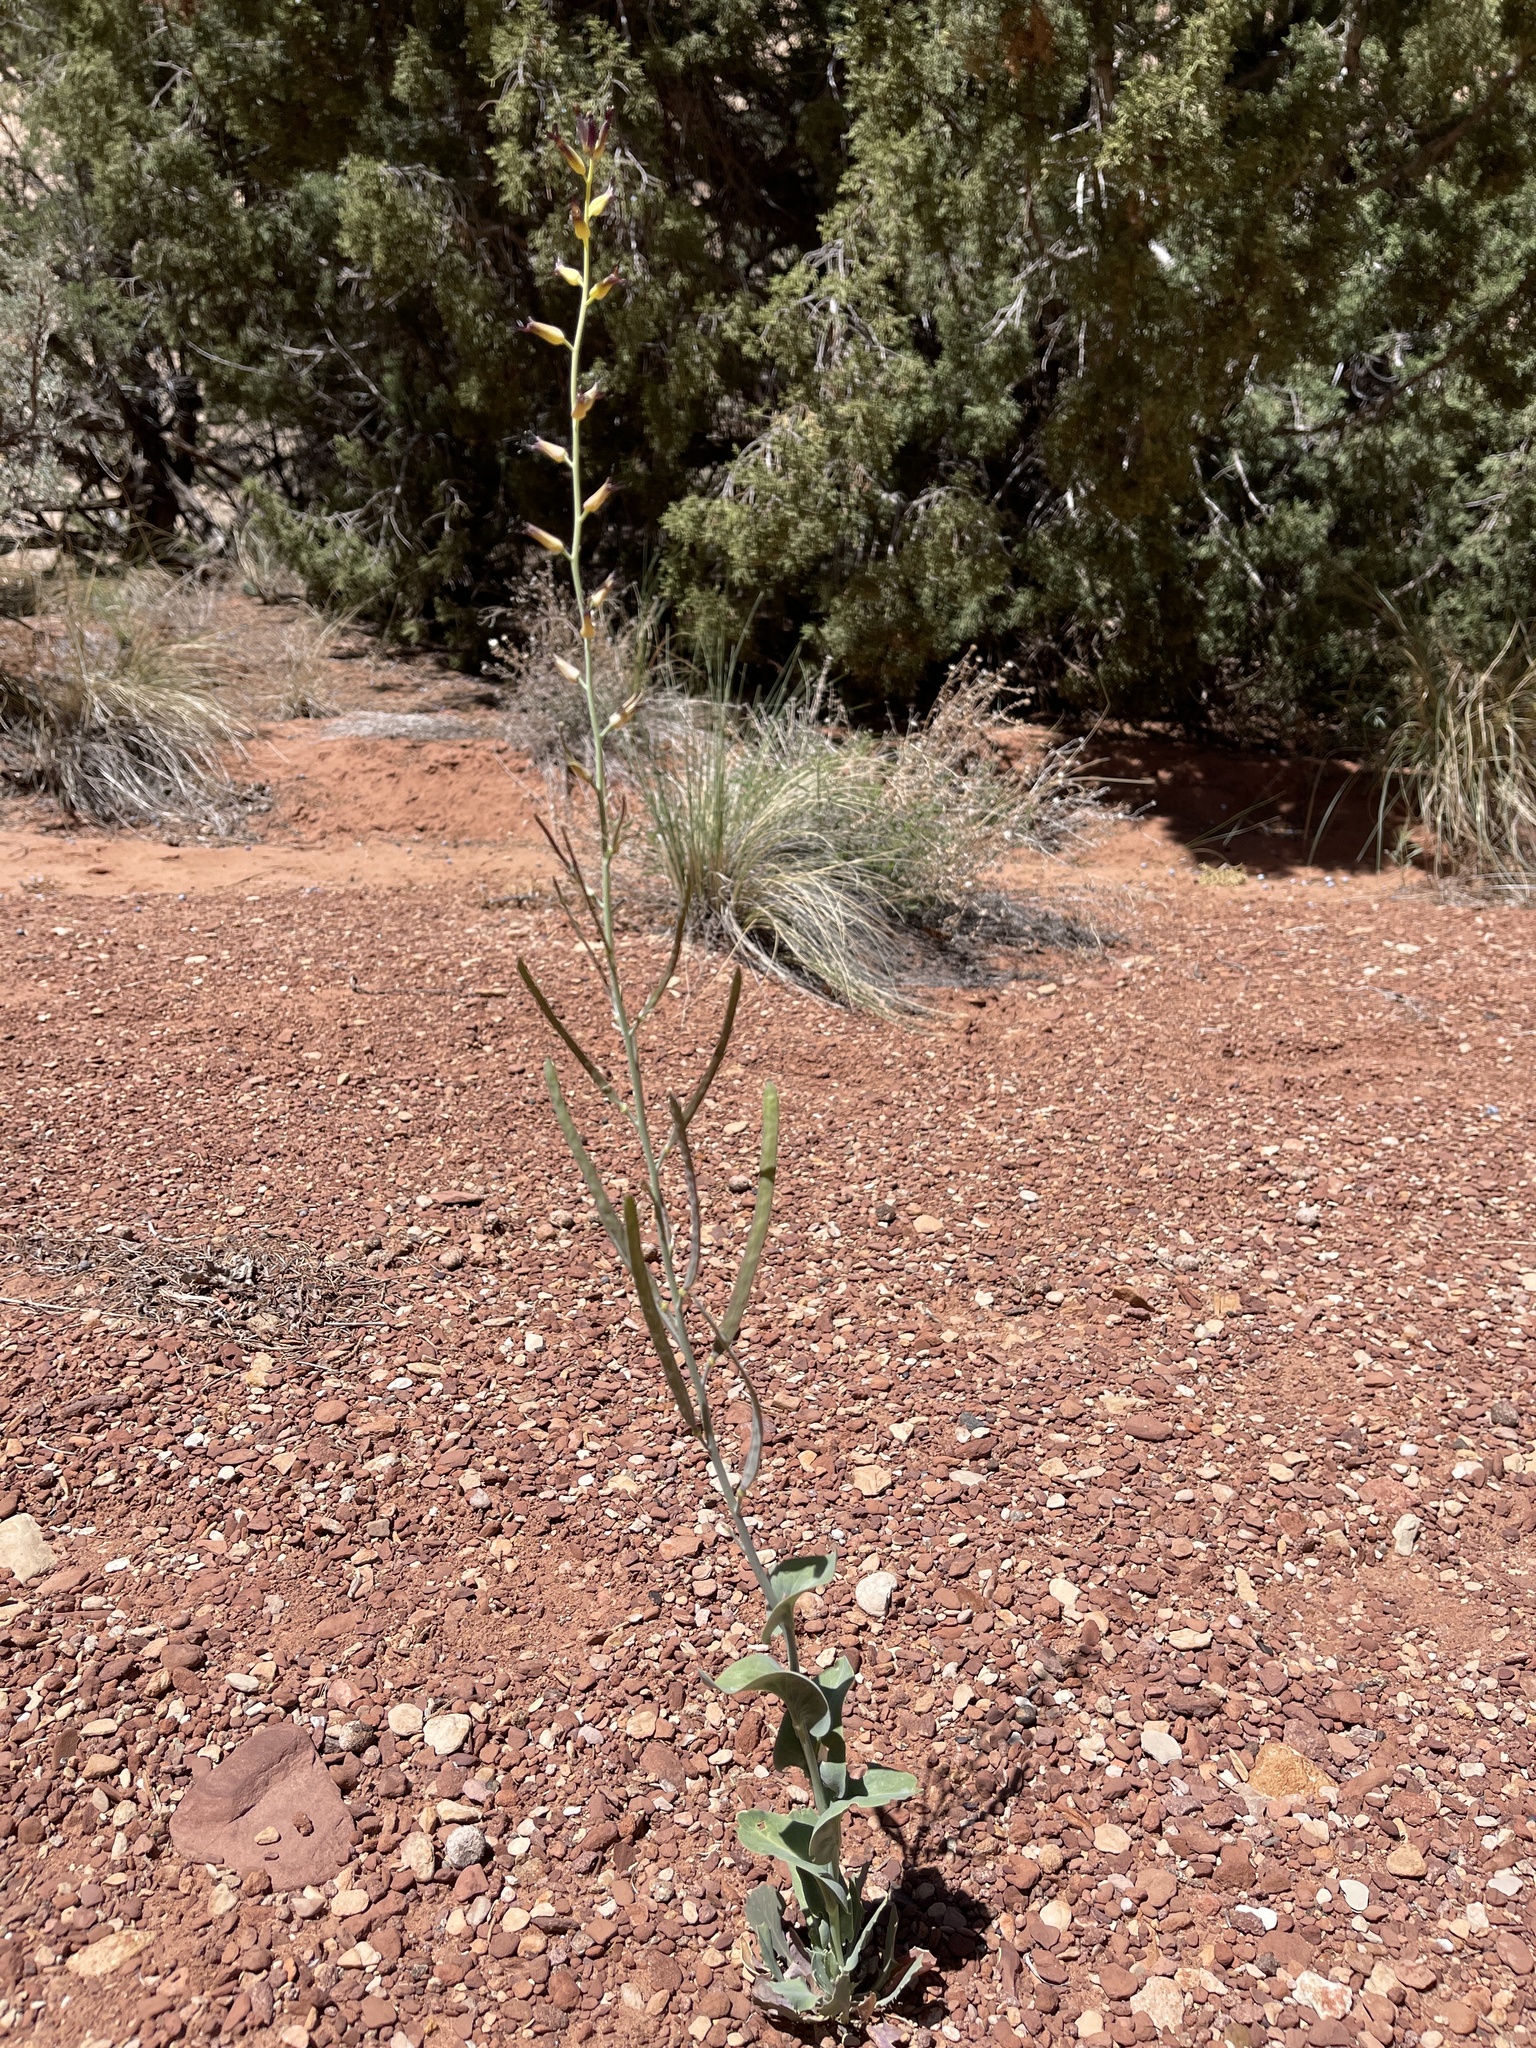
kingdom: Plantae
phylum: Tracheophyta
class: Magnoliopsida
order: Brassicales
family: Brassicaceae
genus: Streptanthus
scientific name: Streptanthus cordatus
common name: Heart-leaf jewel-flower
